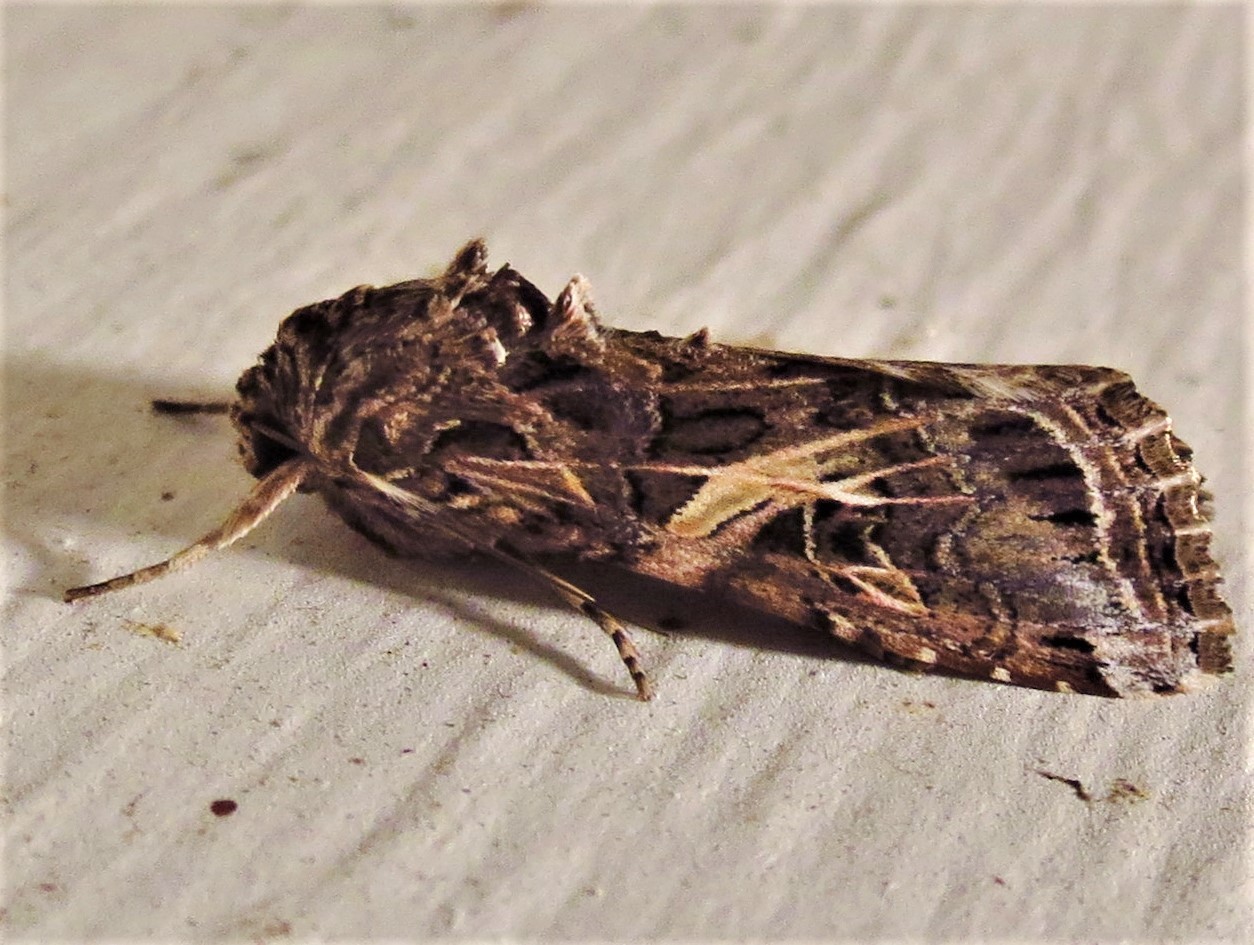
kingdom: Animalia
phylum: Arthropoda
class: Insecta
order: Lepidoptera
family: Noctuidae
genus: Spodoptera
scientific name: Spodoptera ornithogalli
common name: Yellow-striped armyworm
